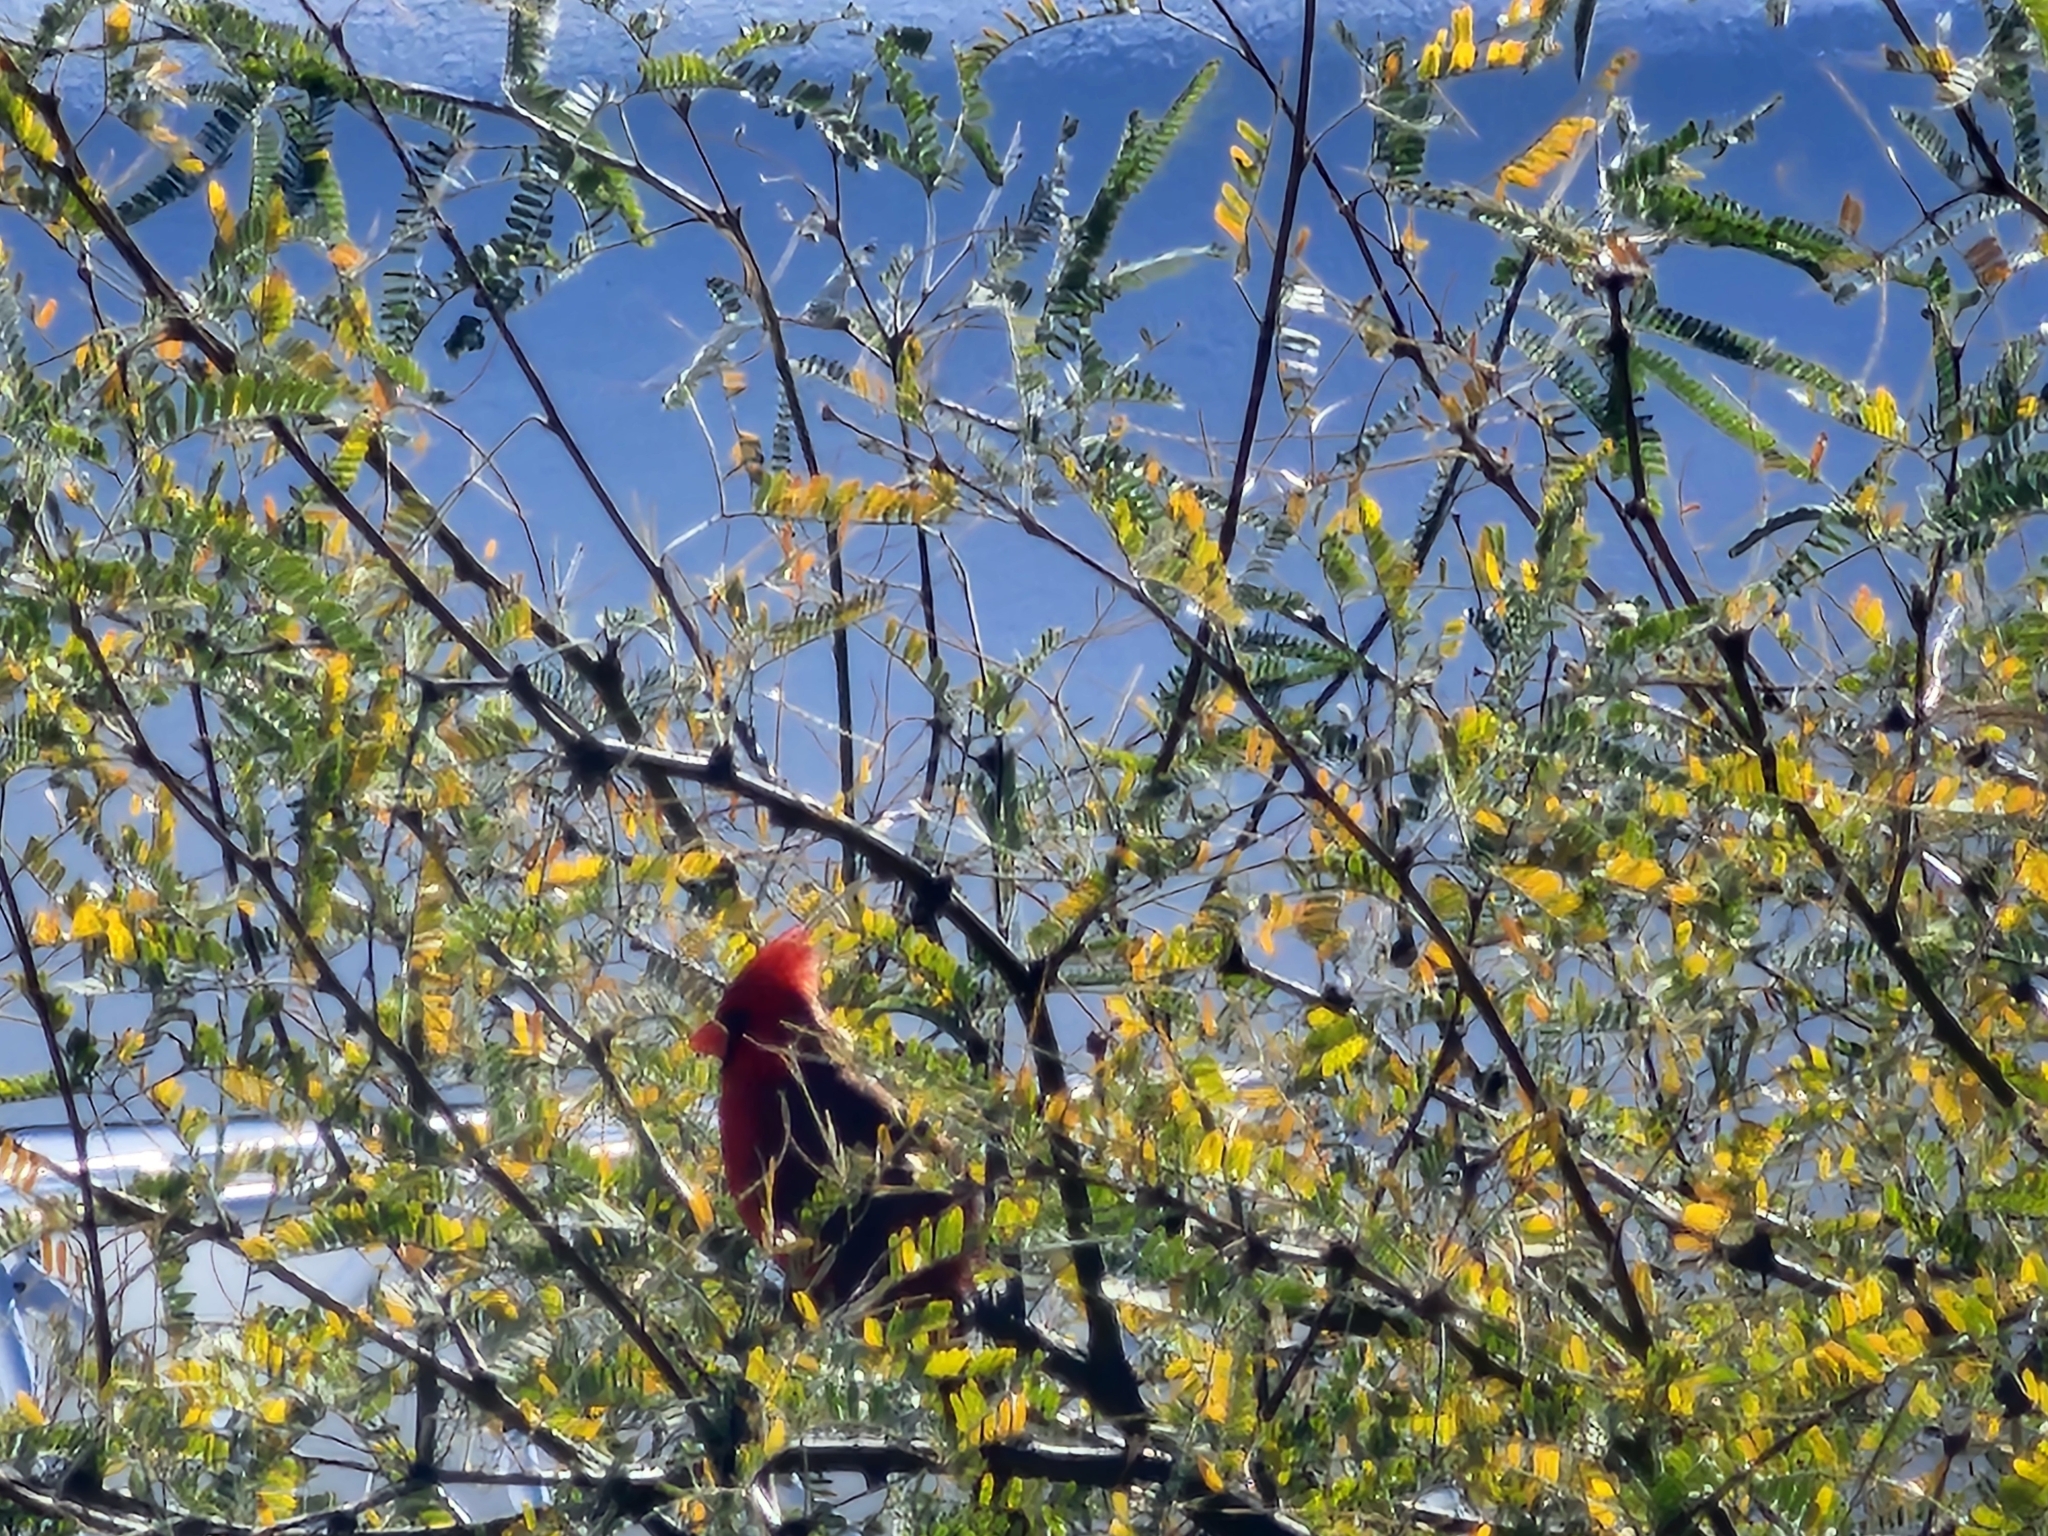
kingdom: Animalia
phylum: Chordata
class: Aves
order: Passeriformes
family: Cardinalidae
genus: Cardinalis
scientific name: Cardinalis cardinalis
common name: Northern cardinal
